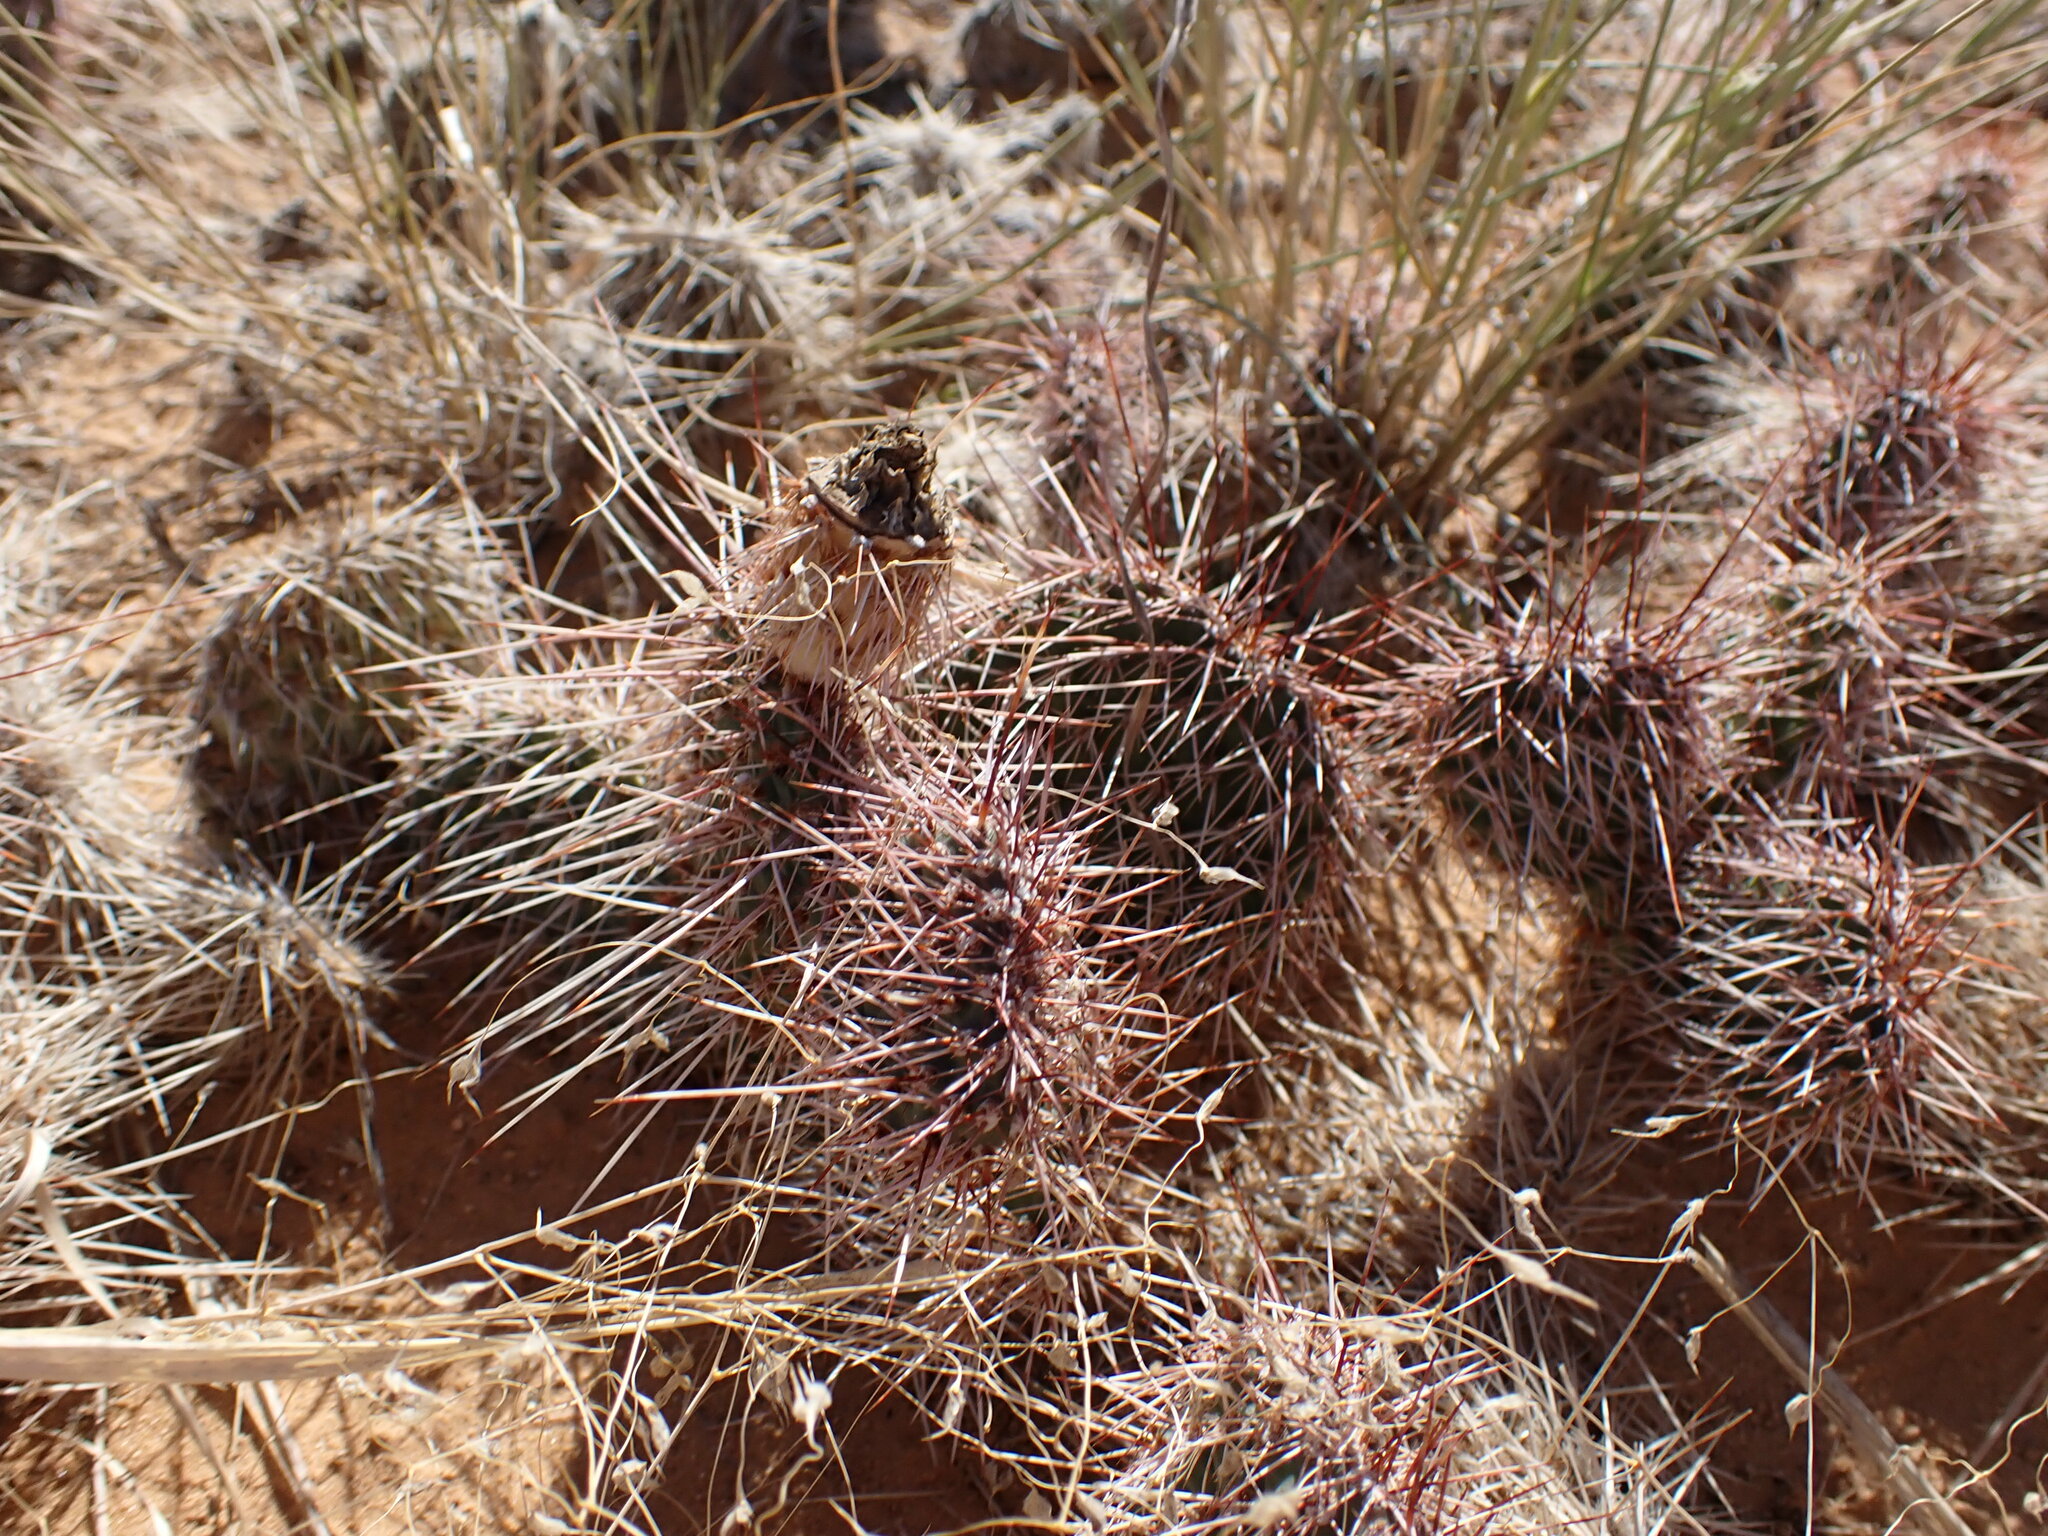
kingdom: Plantae
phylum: Tracheophyta
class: Magnoliopsida
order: Caryophyllales
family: Cactaceae
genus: Opuntia
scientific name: Opuntia polyacantha
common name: Plains prickly-pear
